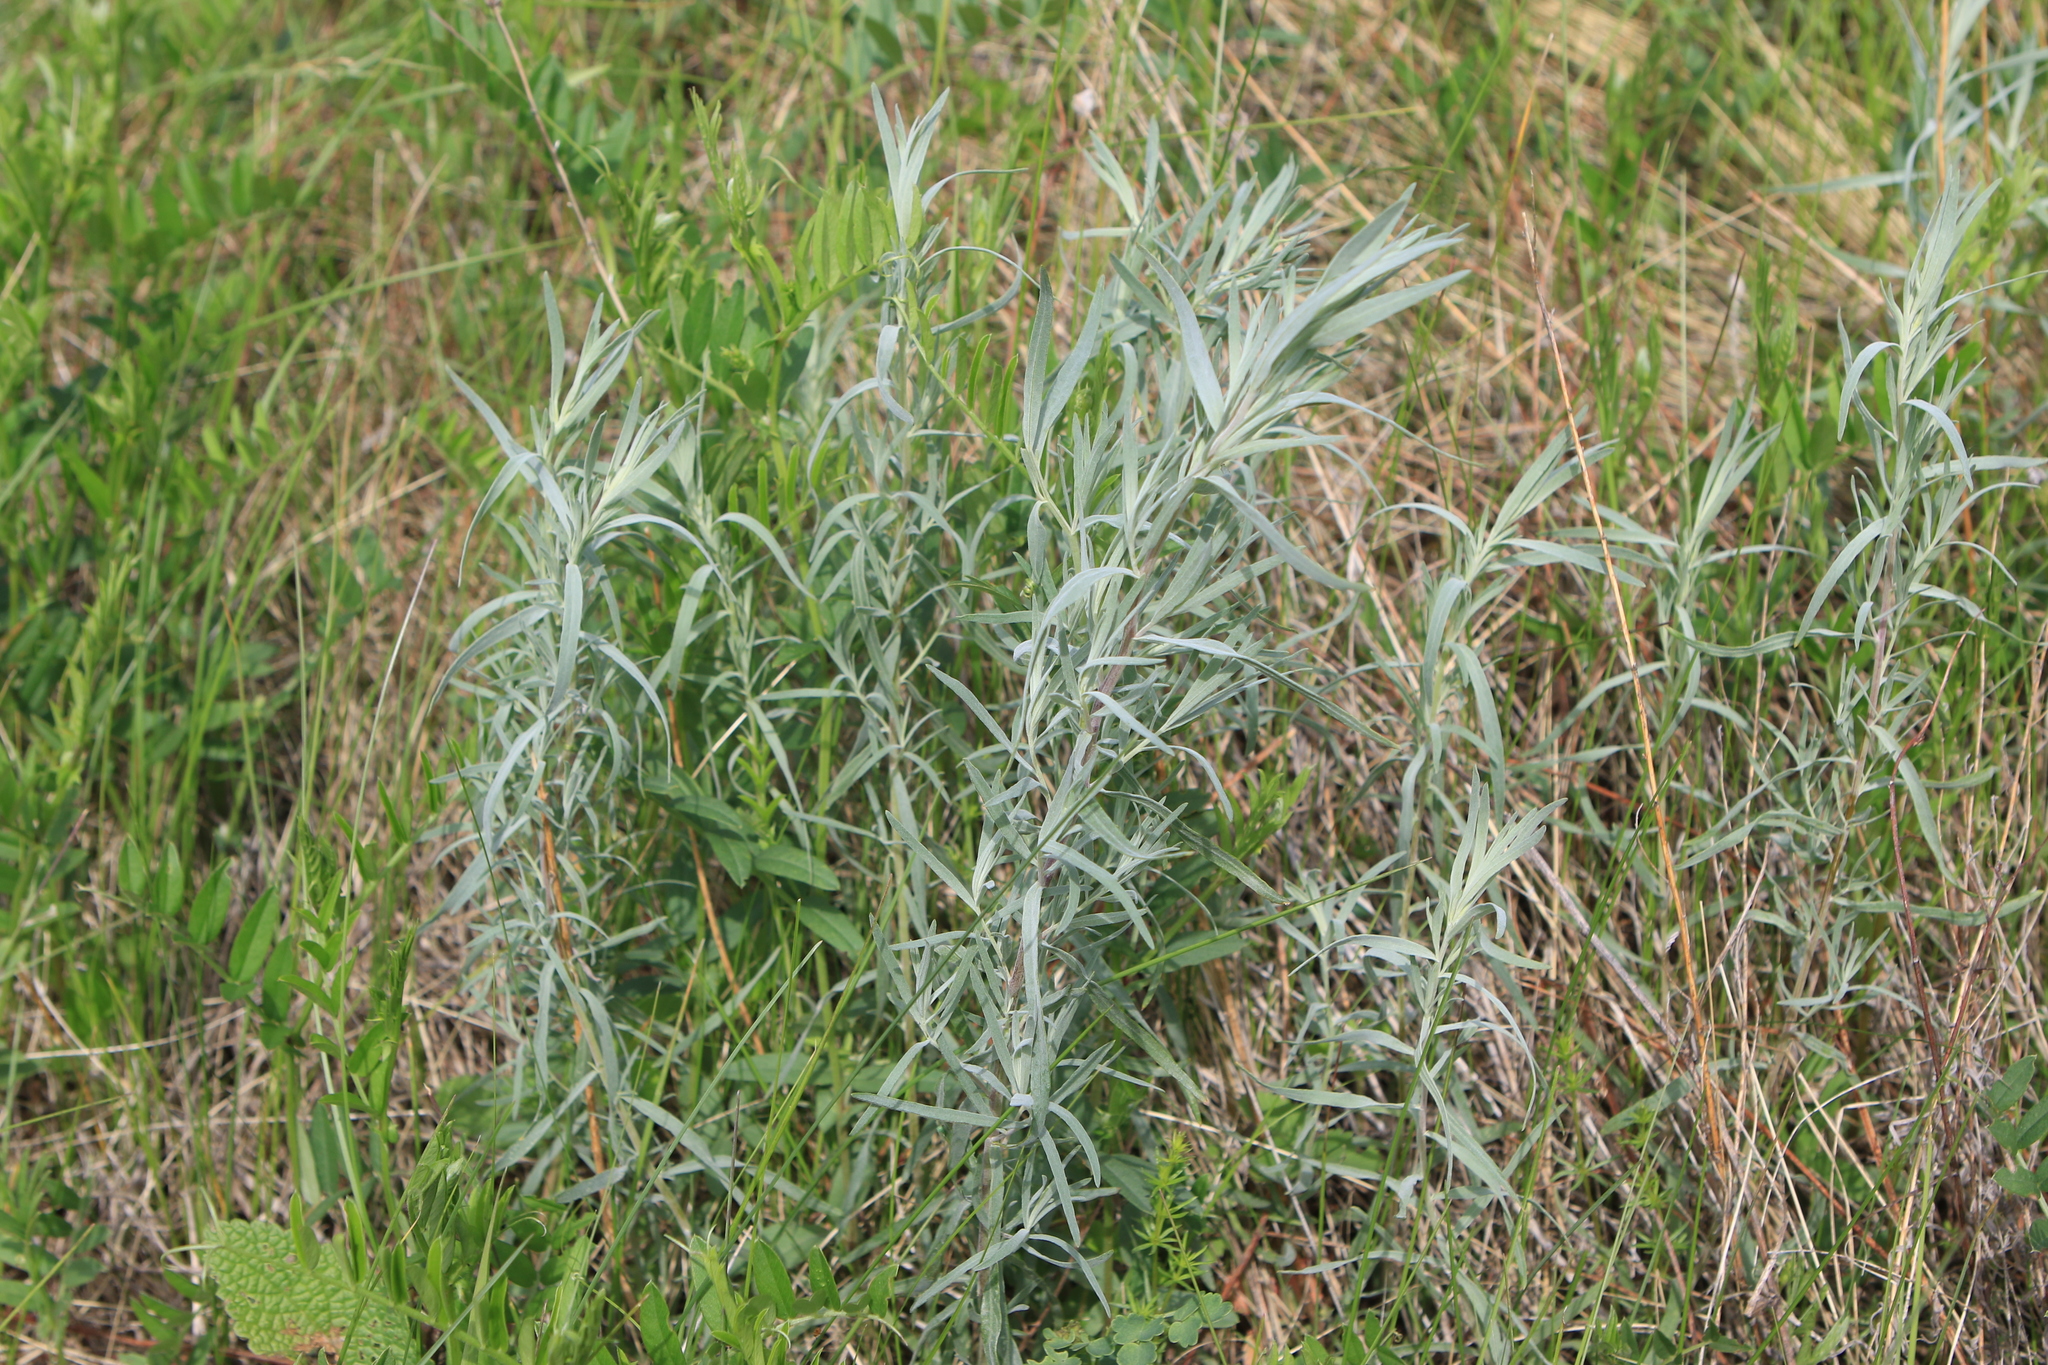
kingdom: Plantae
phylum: Tracheophyta
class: Magnoliopsida
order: Asterales
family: Asteraceae
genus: Artemisia
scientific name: Artemisia glauca
